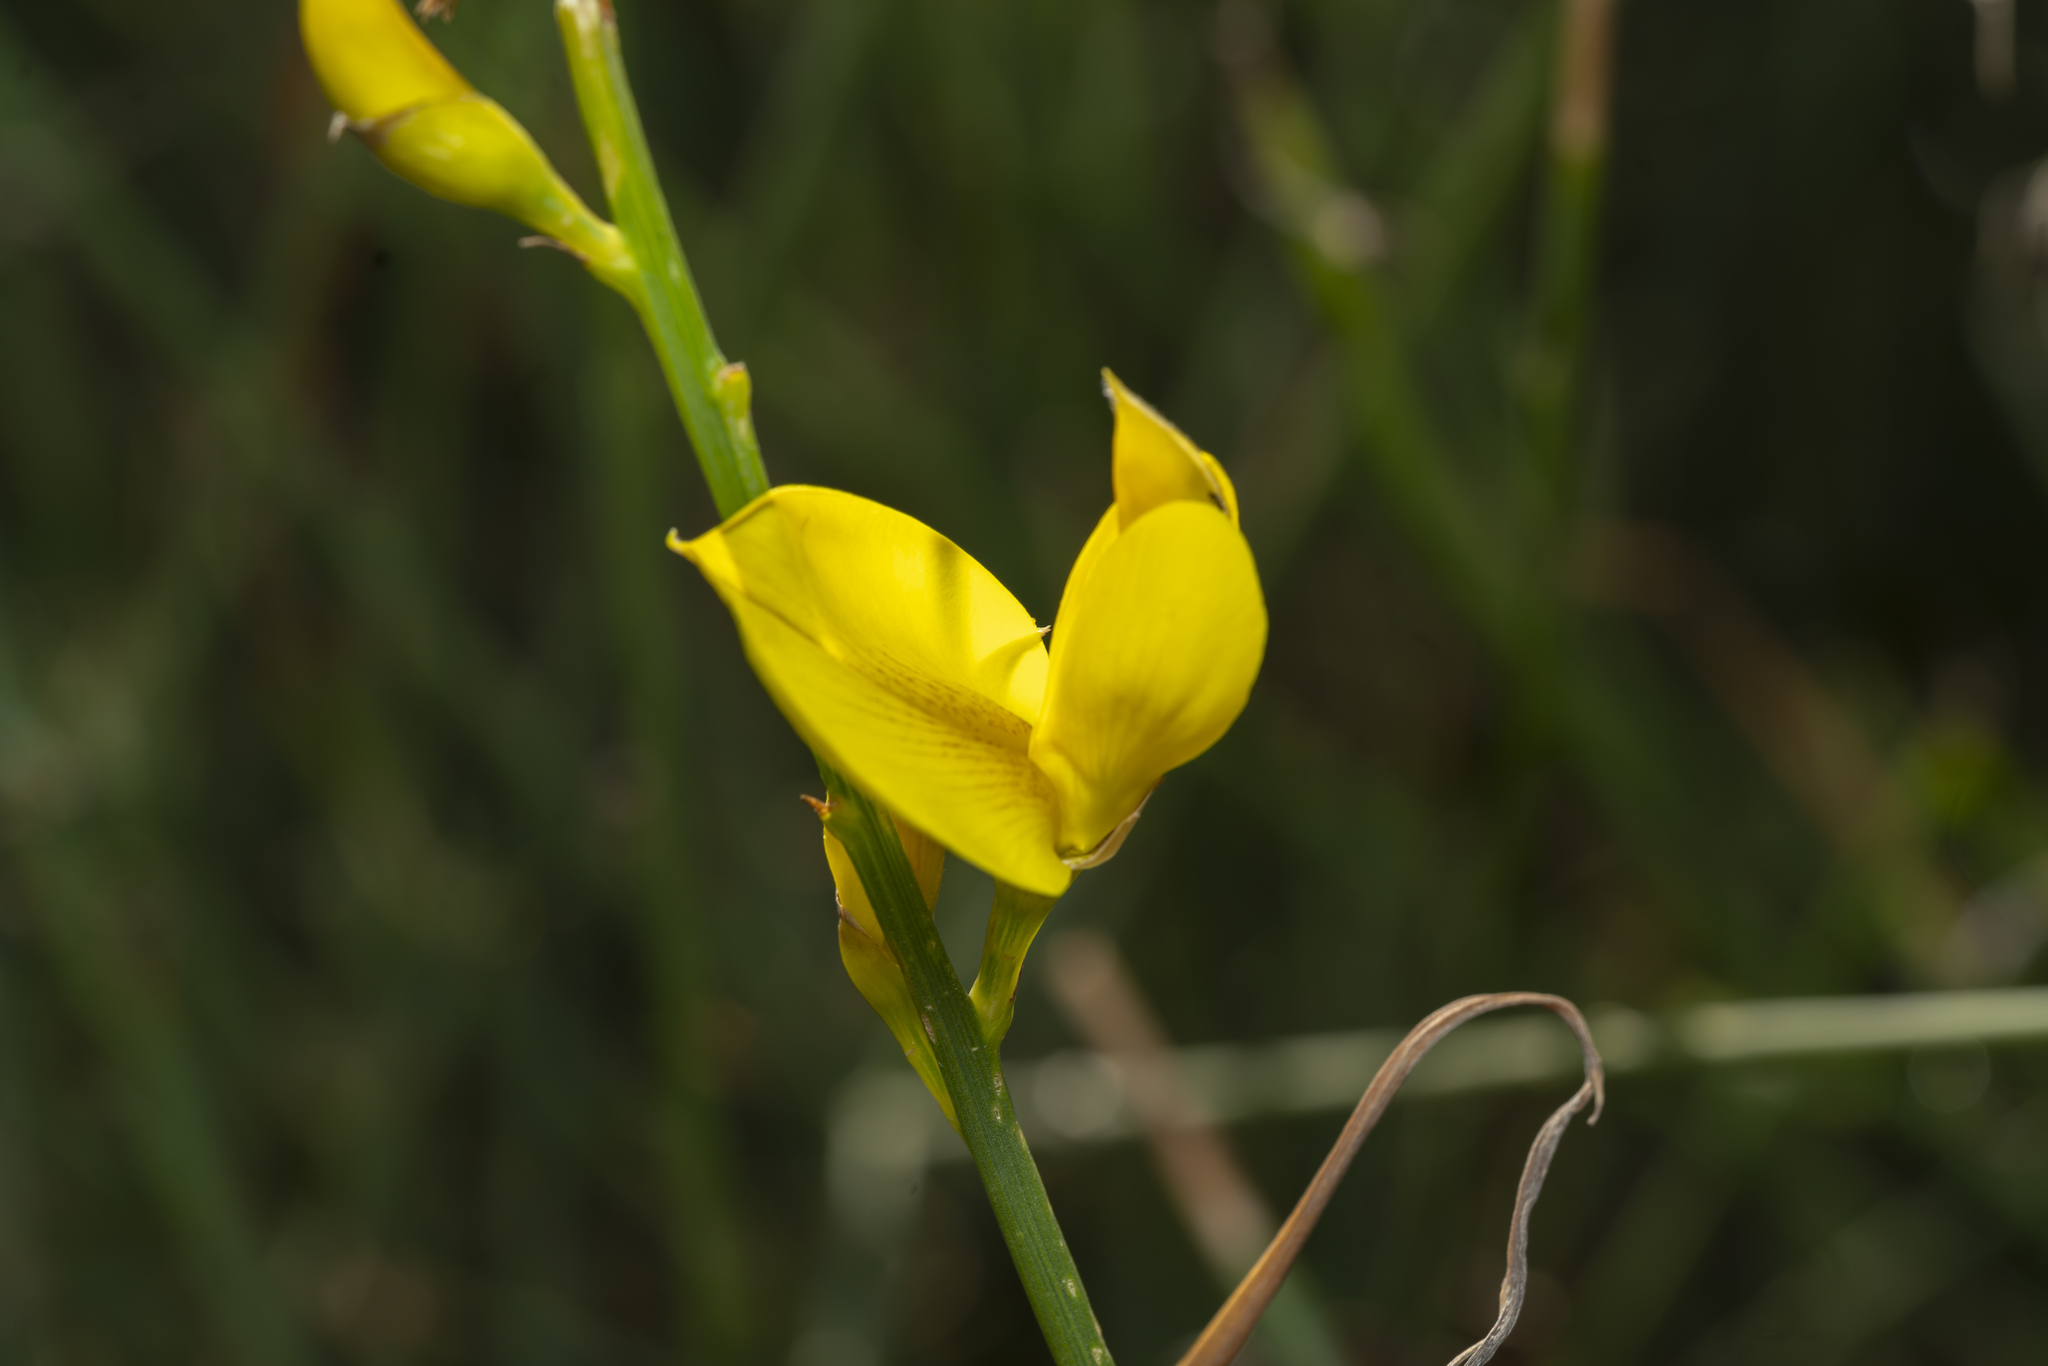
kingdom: Plantae
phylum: Tracheophyta
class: Magnoliopsida
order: Fabales
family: Fabaceae
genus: Spartium
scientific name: Spartium junceum
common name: Spanish broom
